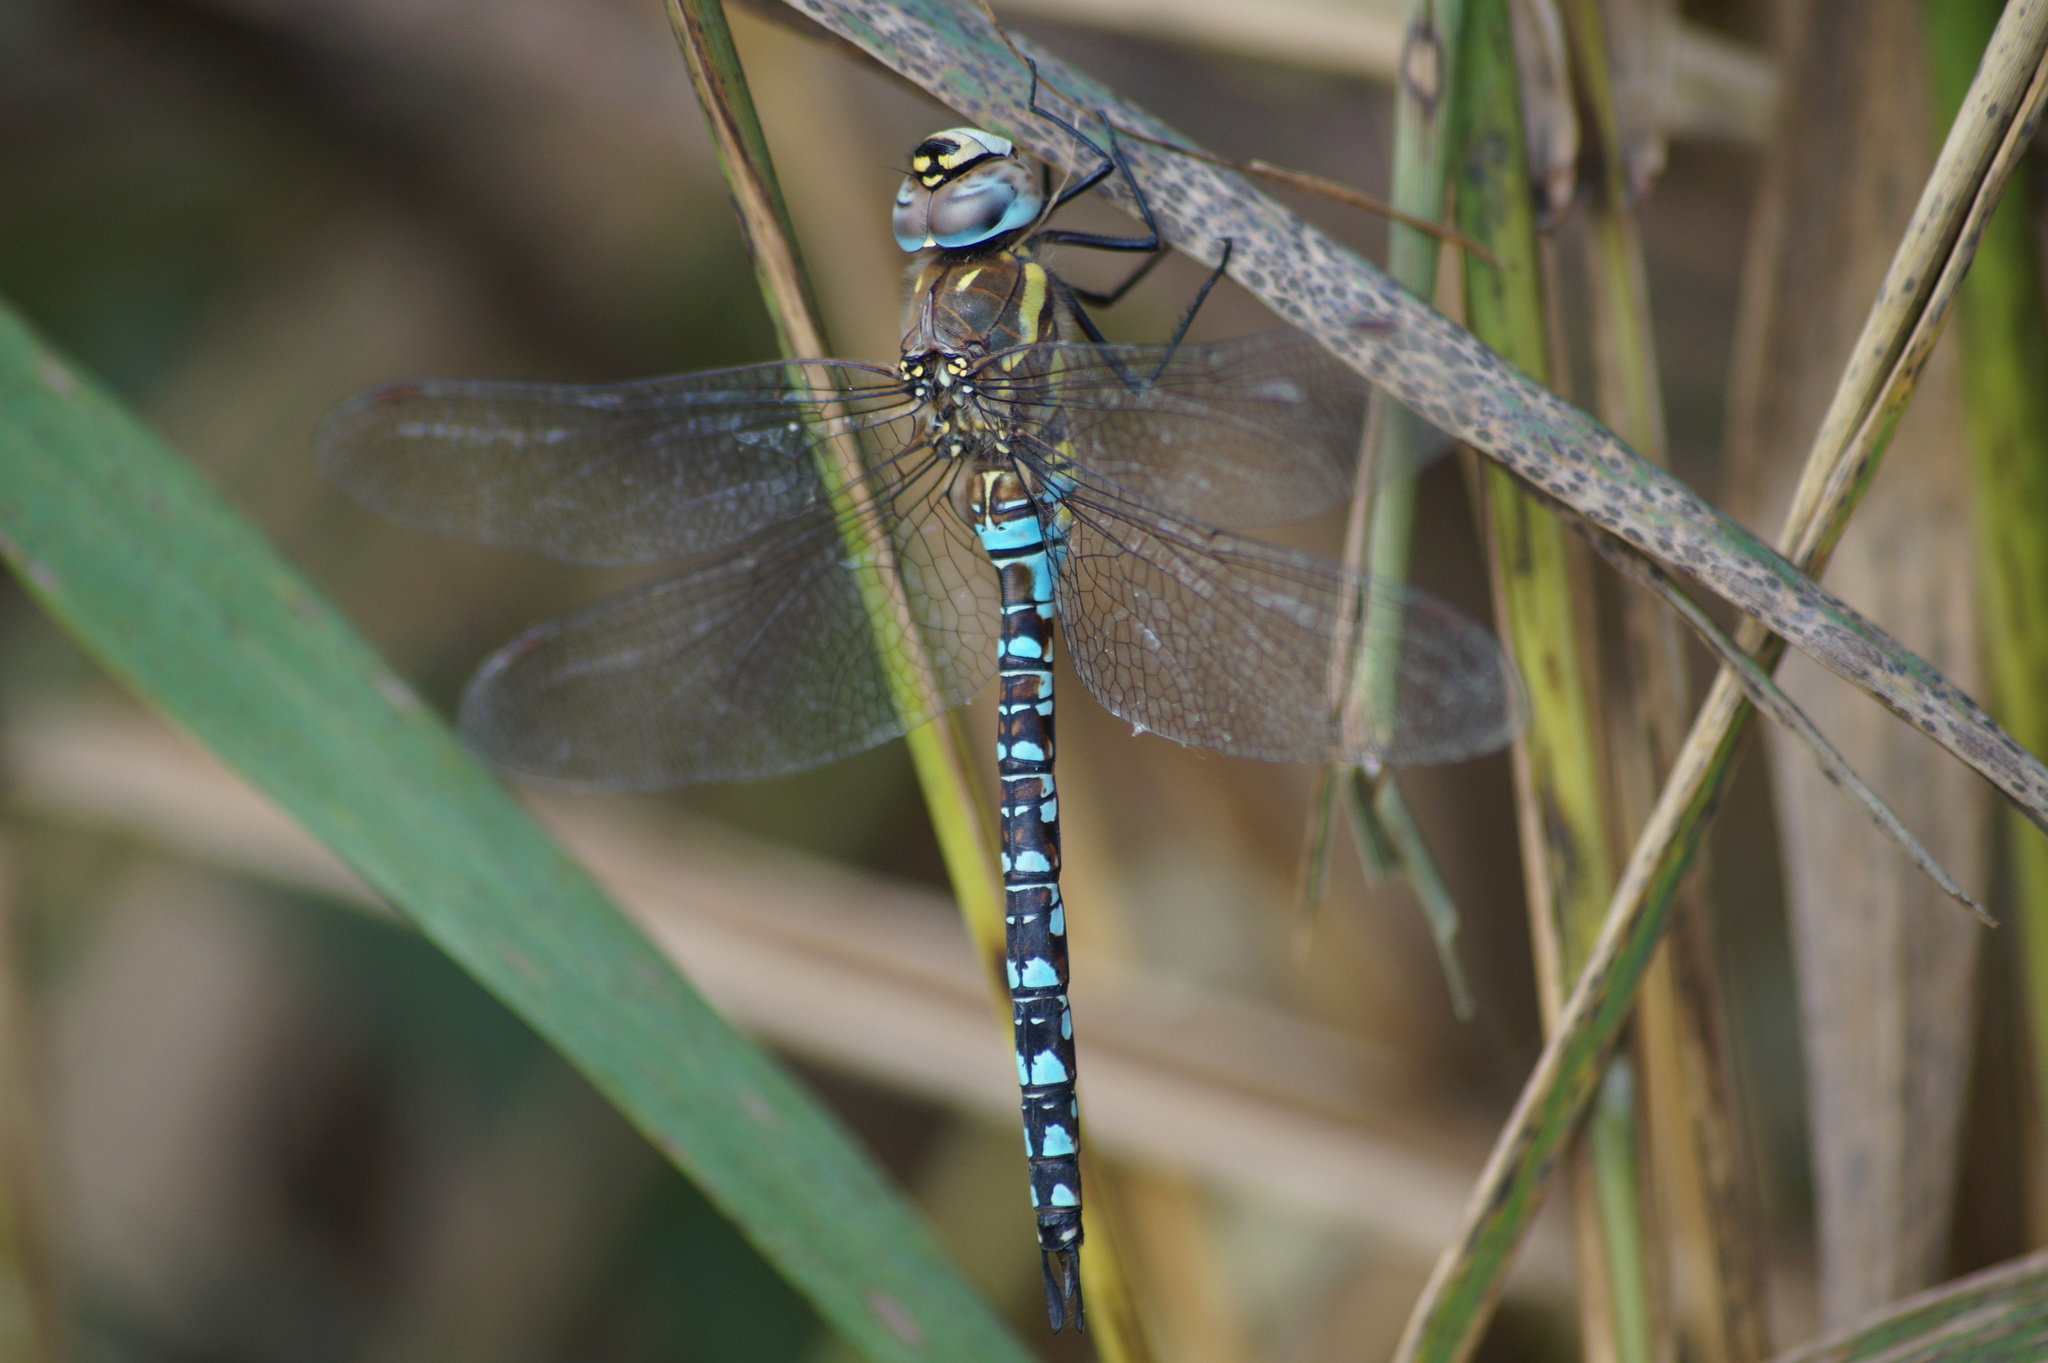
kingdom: Animalia
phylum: Arthropoda
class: Insecta
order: Odonata
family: Aeshnidae
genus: Aeshna
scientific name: Aeshna mixta
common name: Migrant hawker
